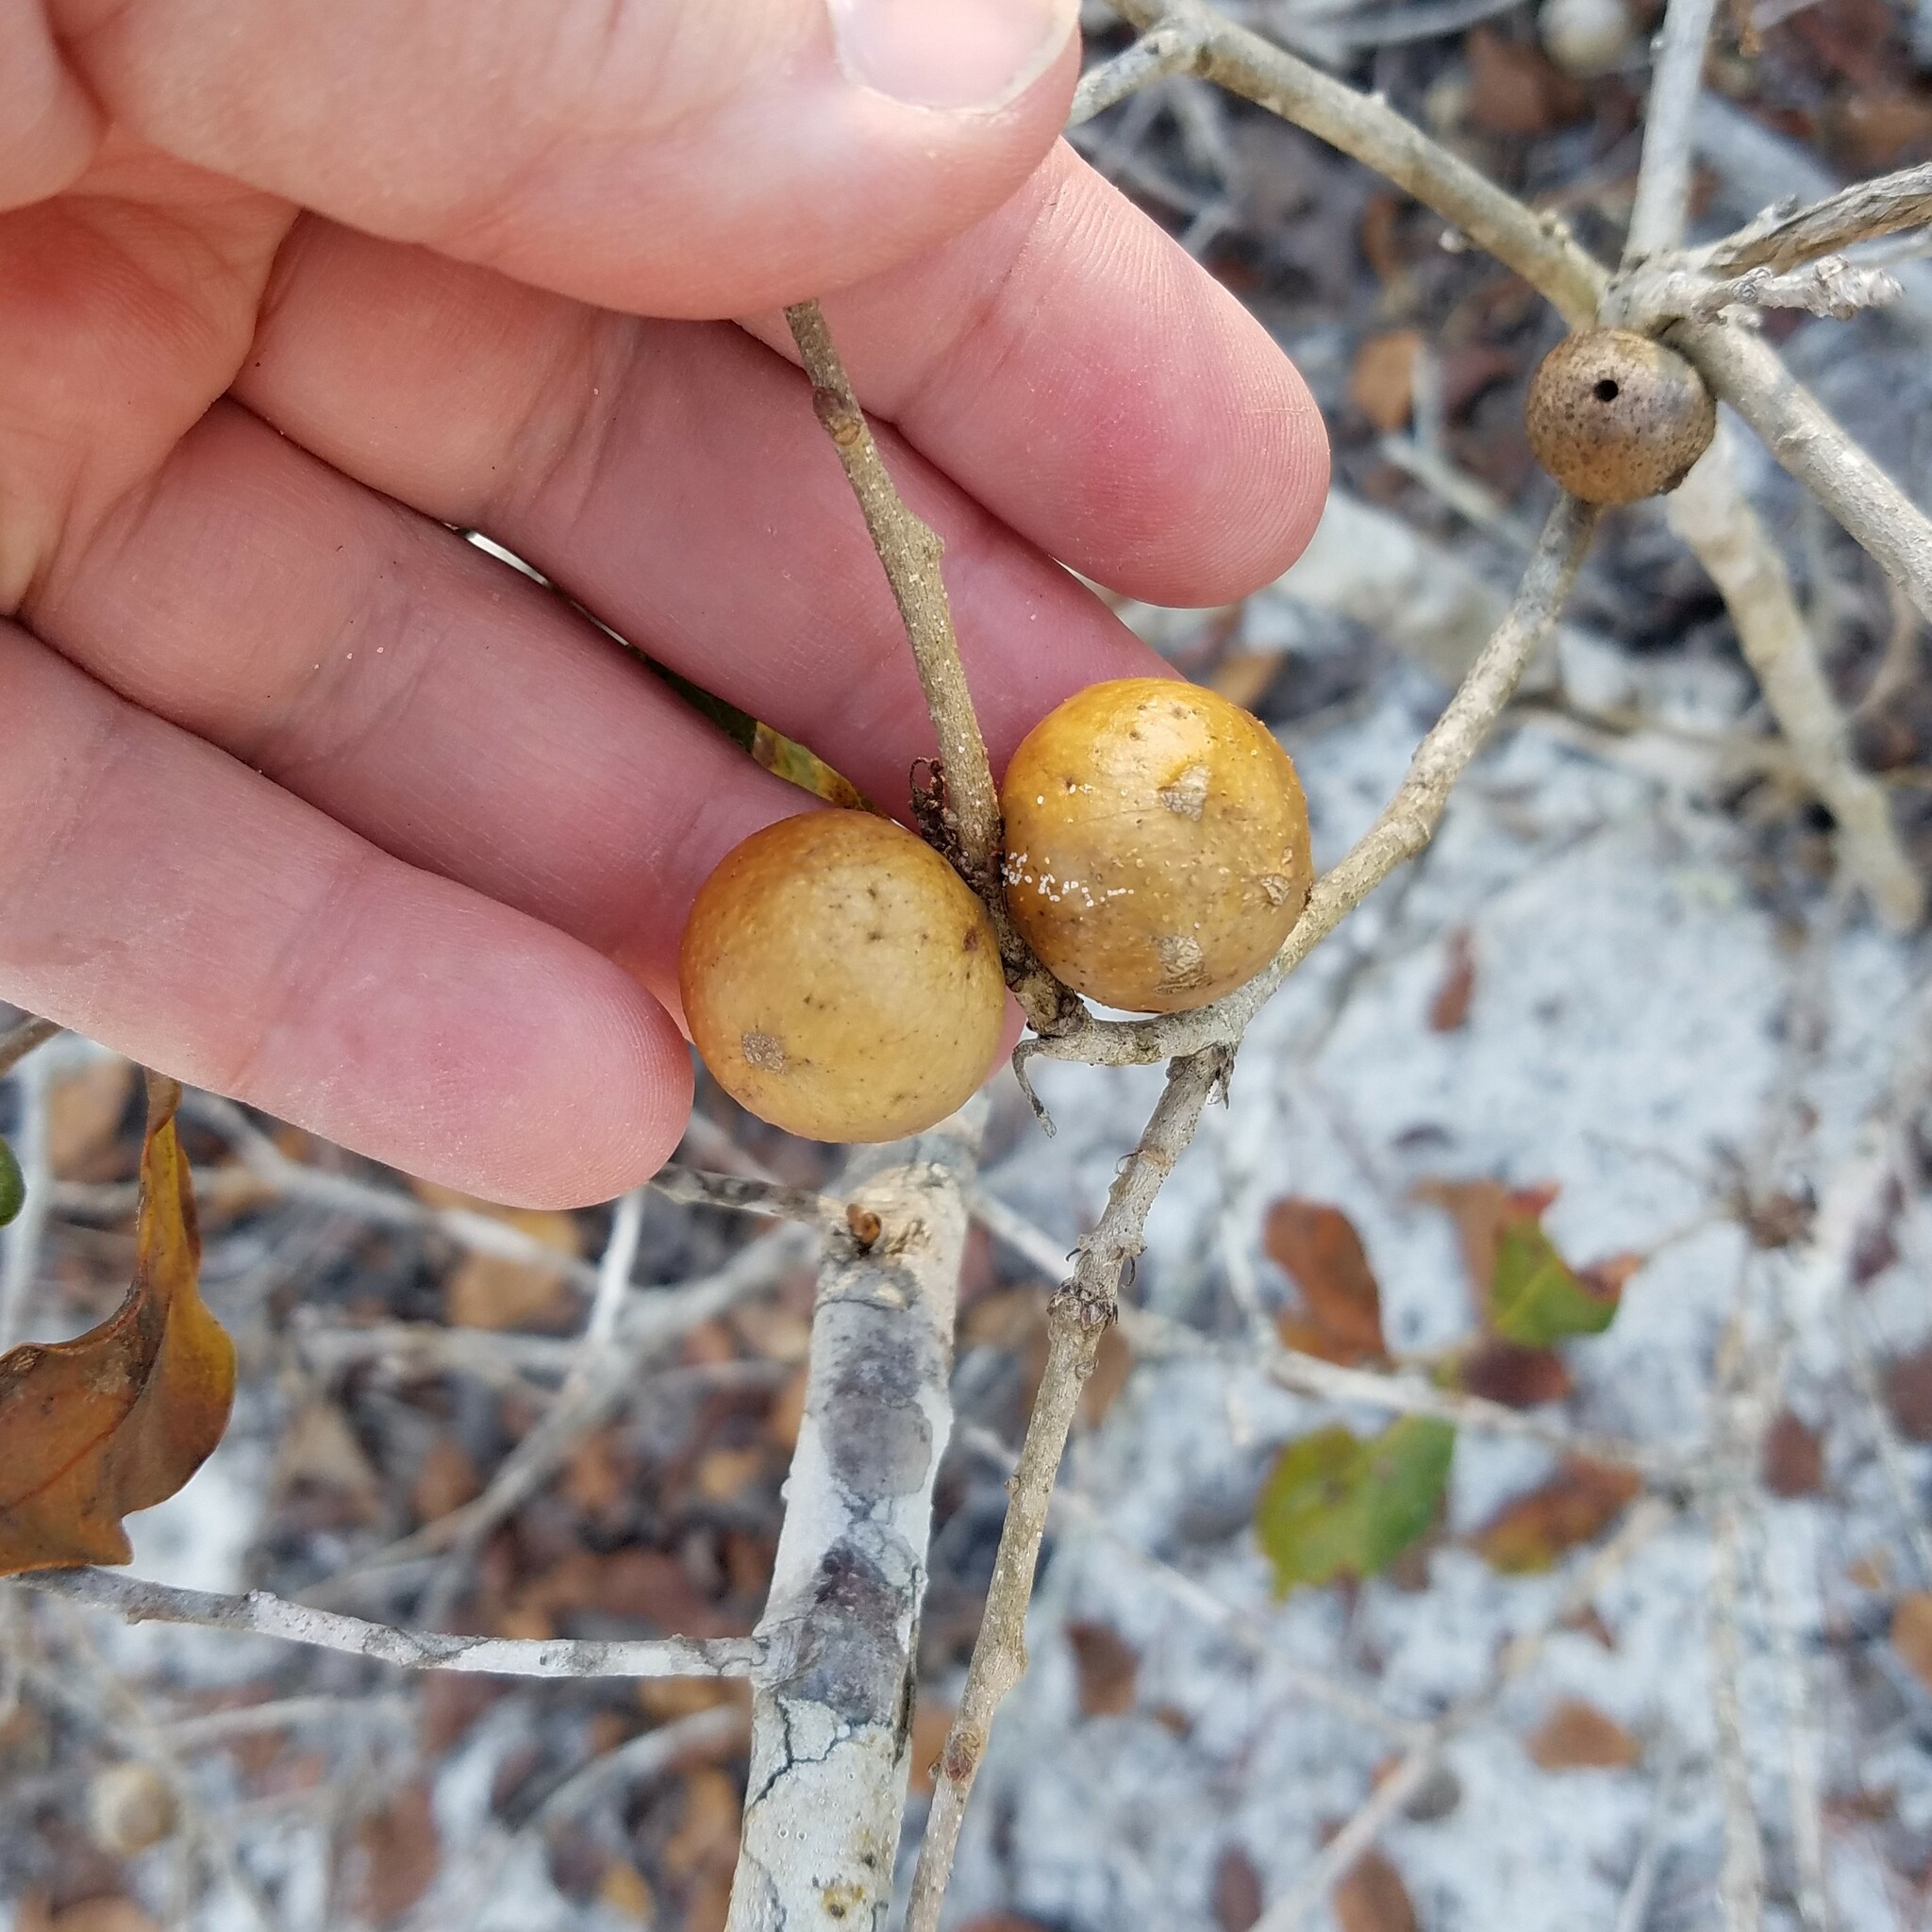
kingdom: Animalia
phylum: Arthropoda
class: Insecta
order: Hymenoptera
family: Cynipidae
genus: Disholcaspis
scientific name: Disholcaspis
